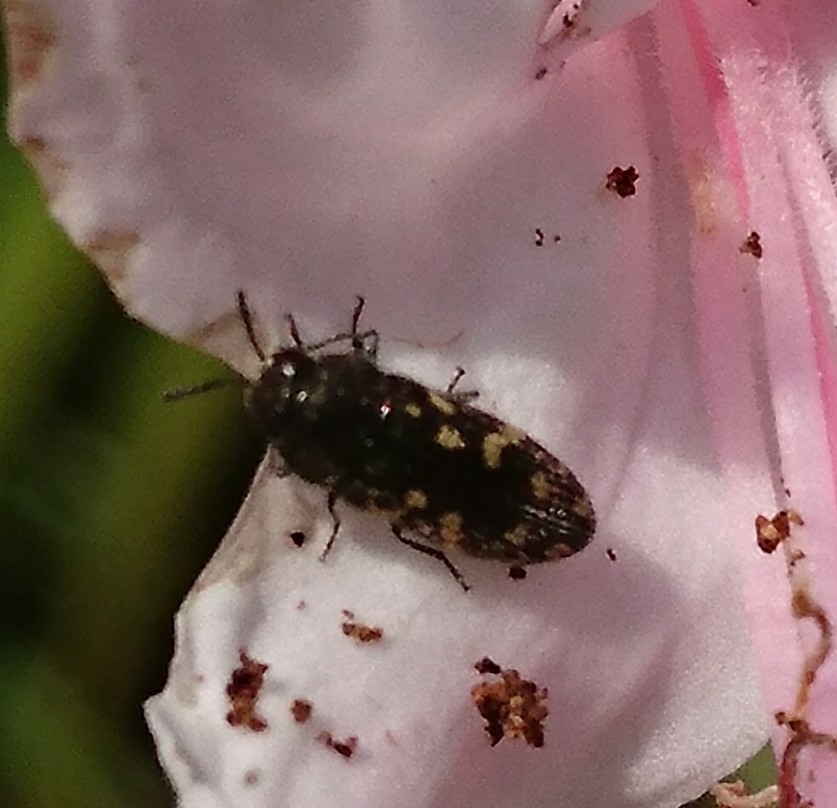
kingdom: Animalia
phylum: Arthropoda
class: Insecta
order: Coleoptera
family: Buprestidae
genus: Acmaeodera
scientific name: Acmaeodera tubulus
